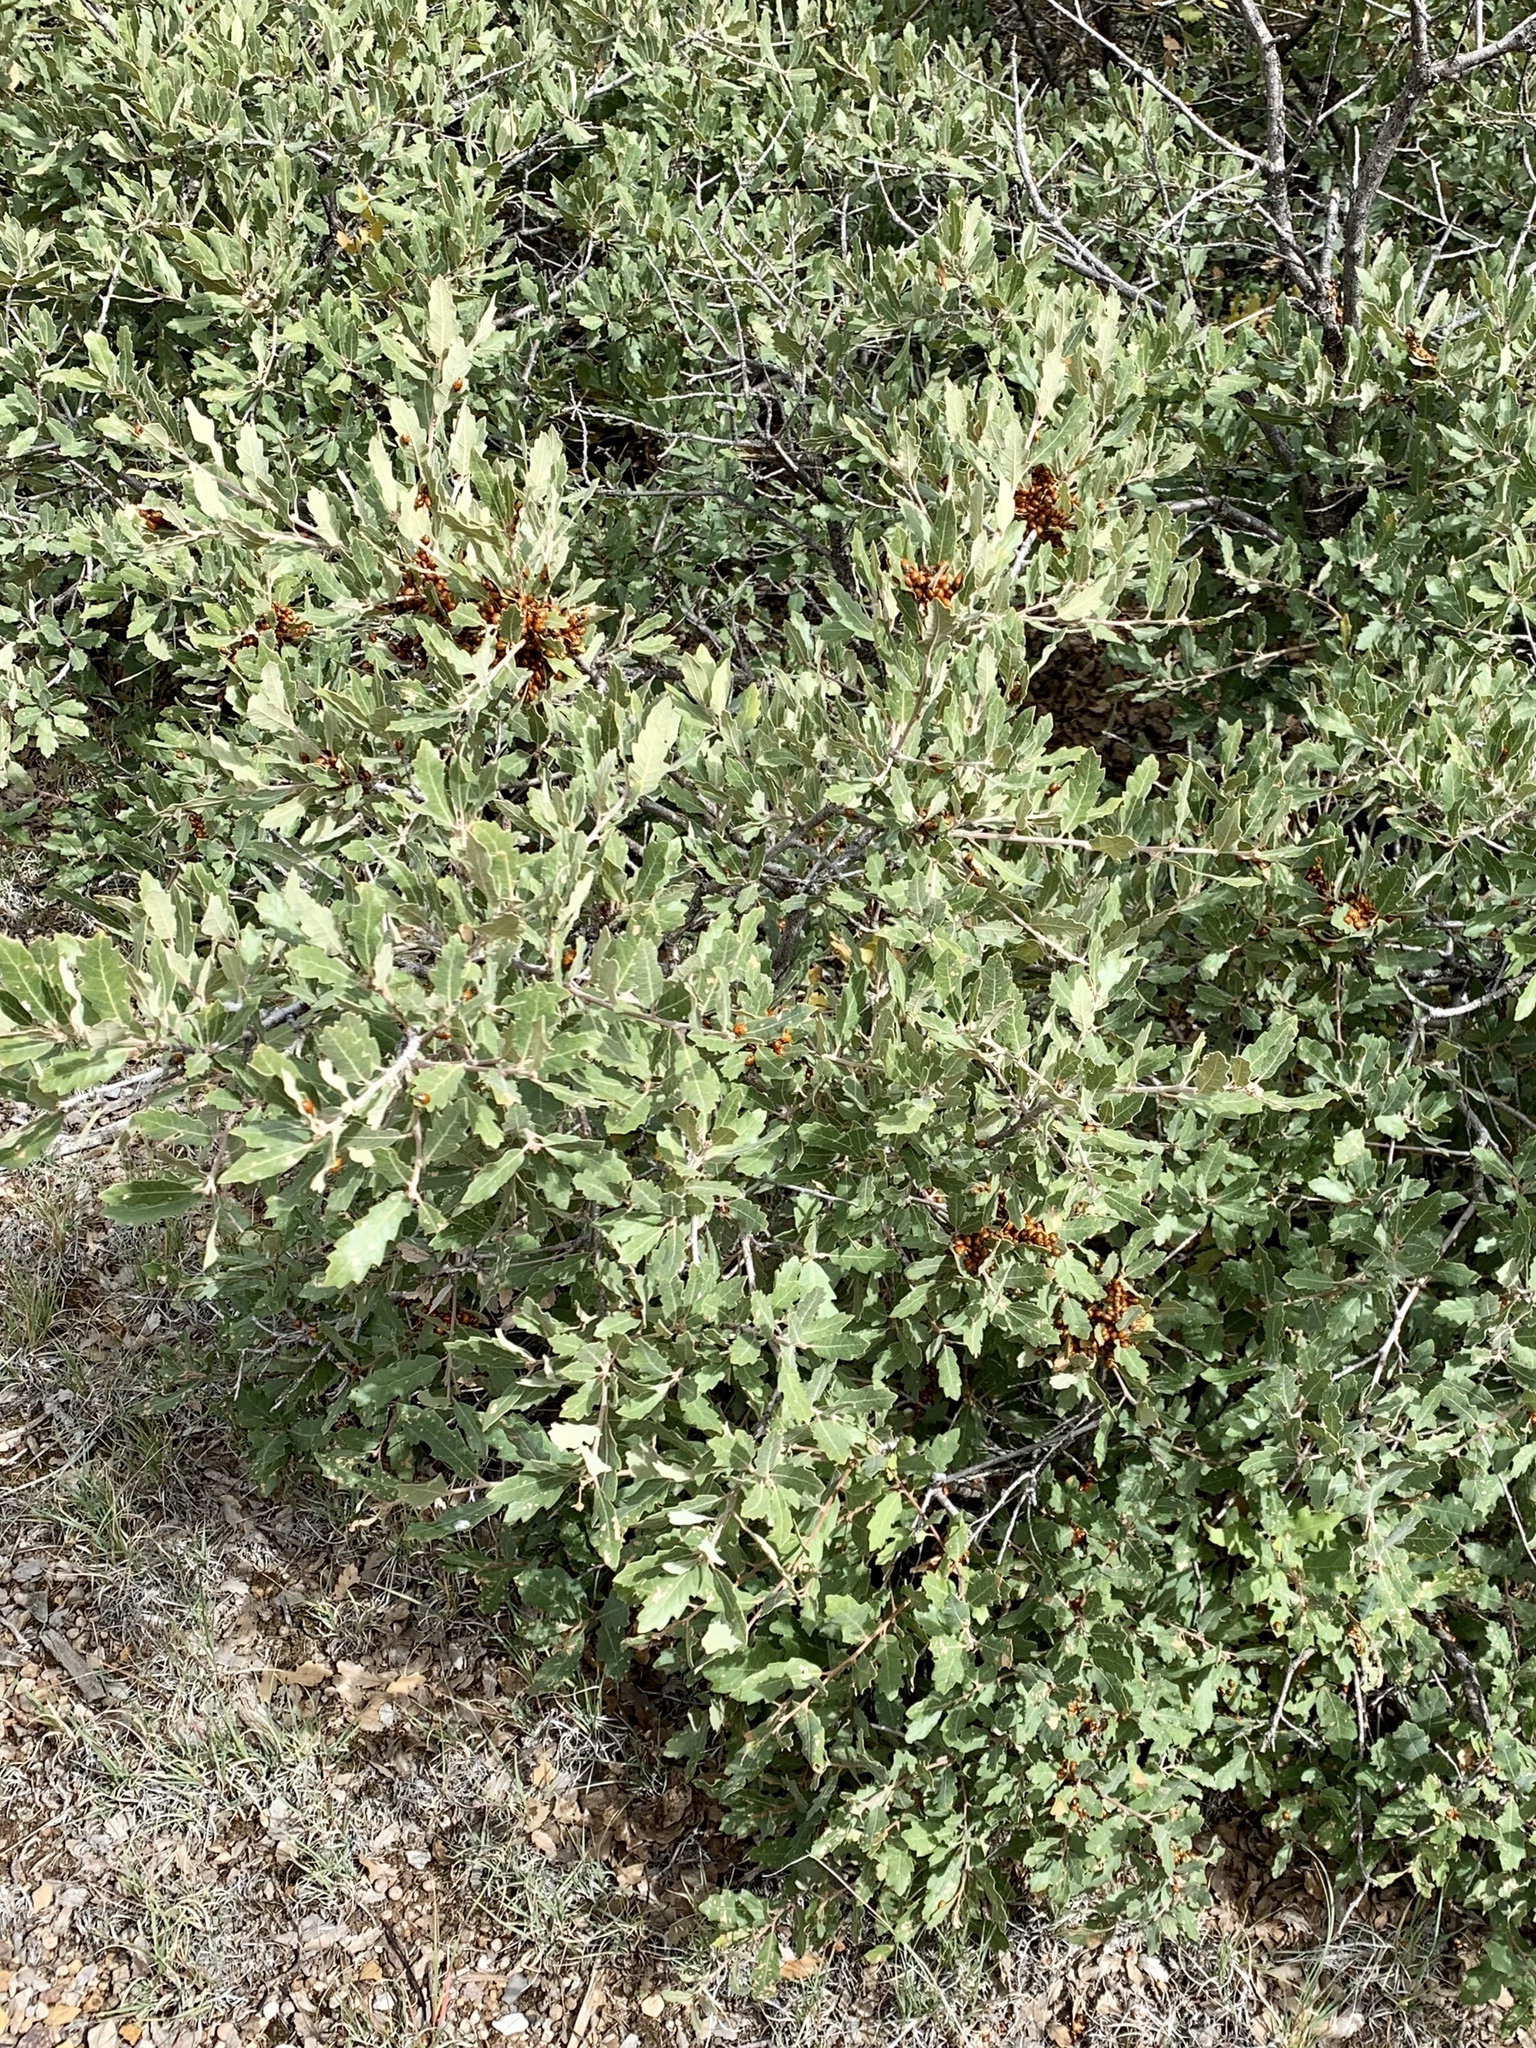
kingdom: Plantae
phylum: Tracheophyta
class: Magnoliopsida
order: Fagales
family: Fagaceae
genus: Quercus
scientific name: Quercus undulata
